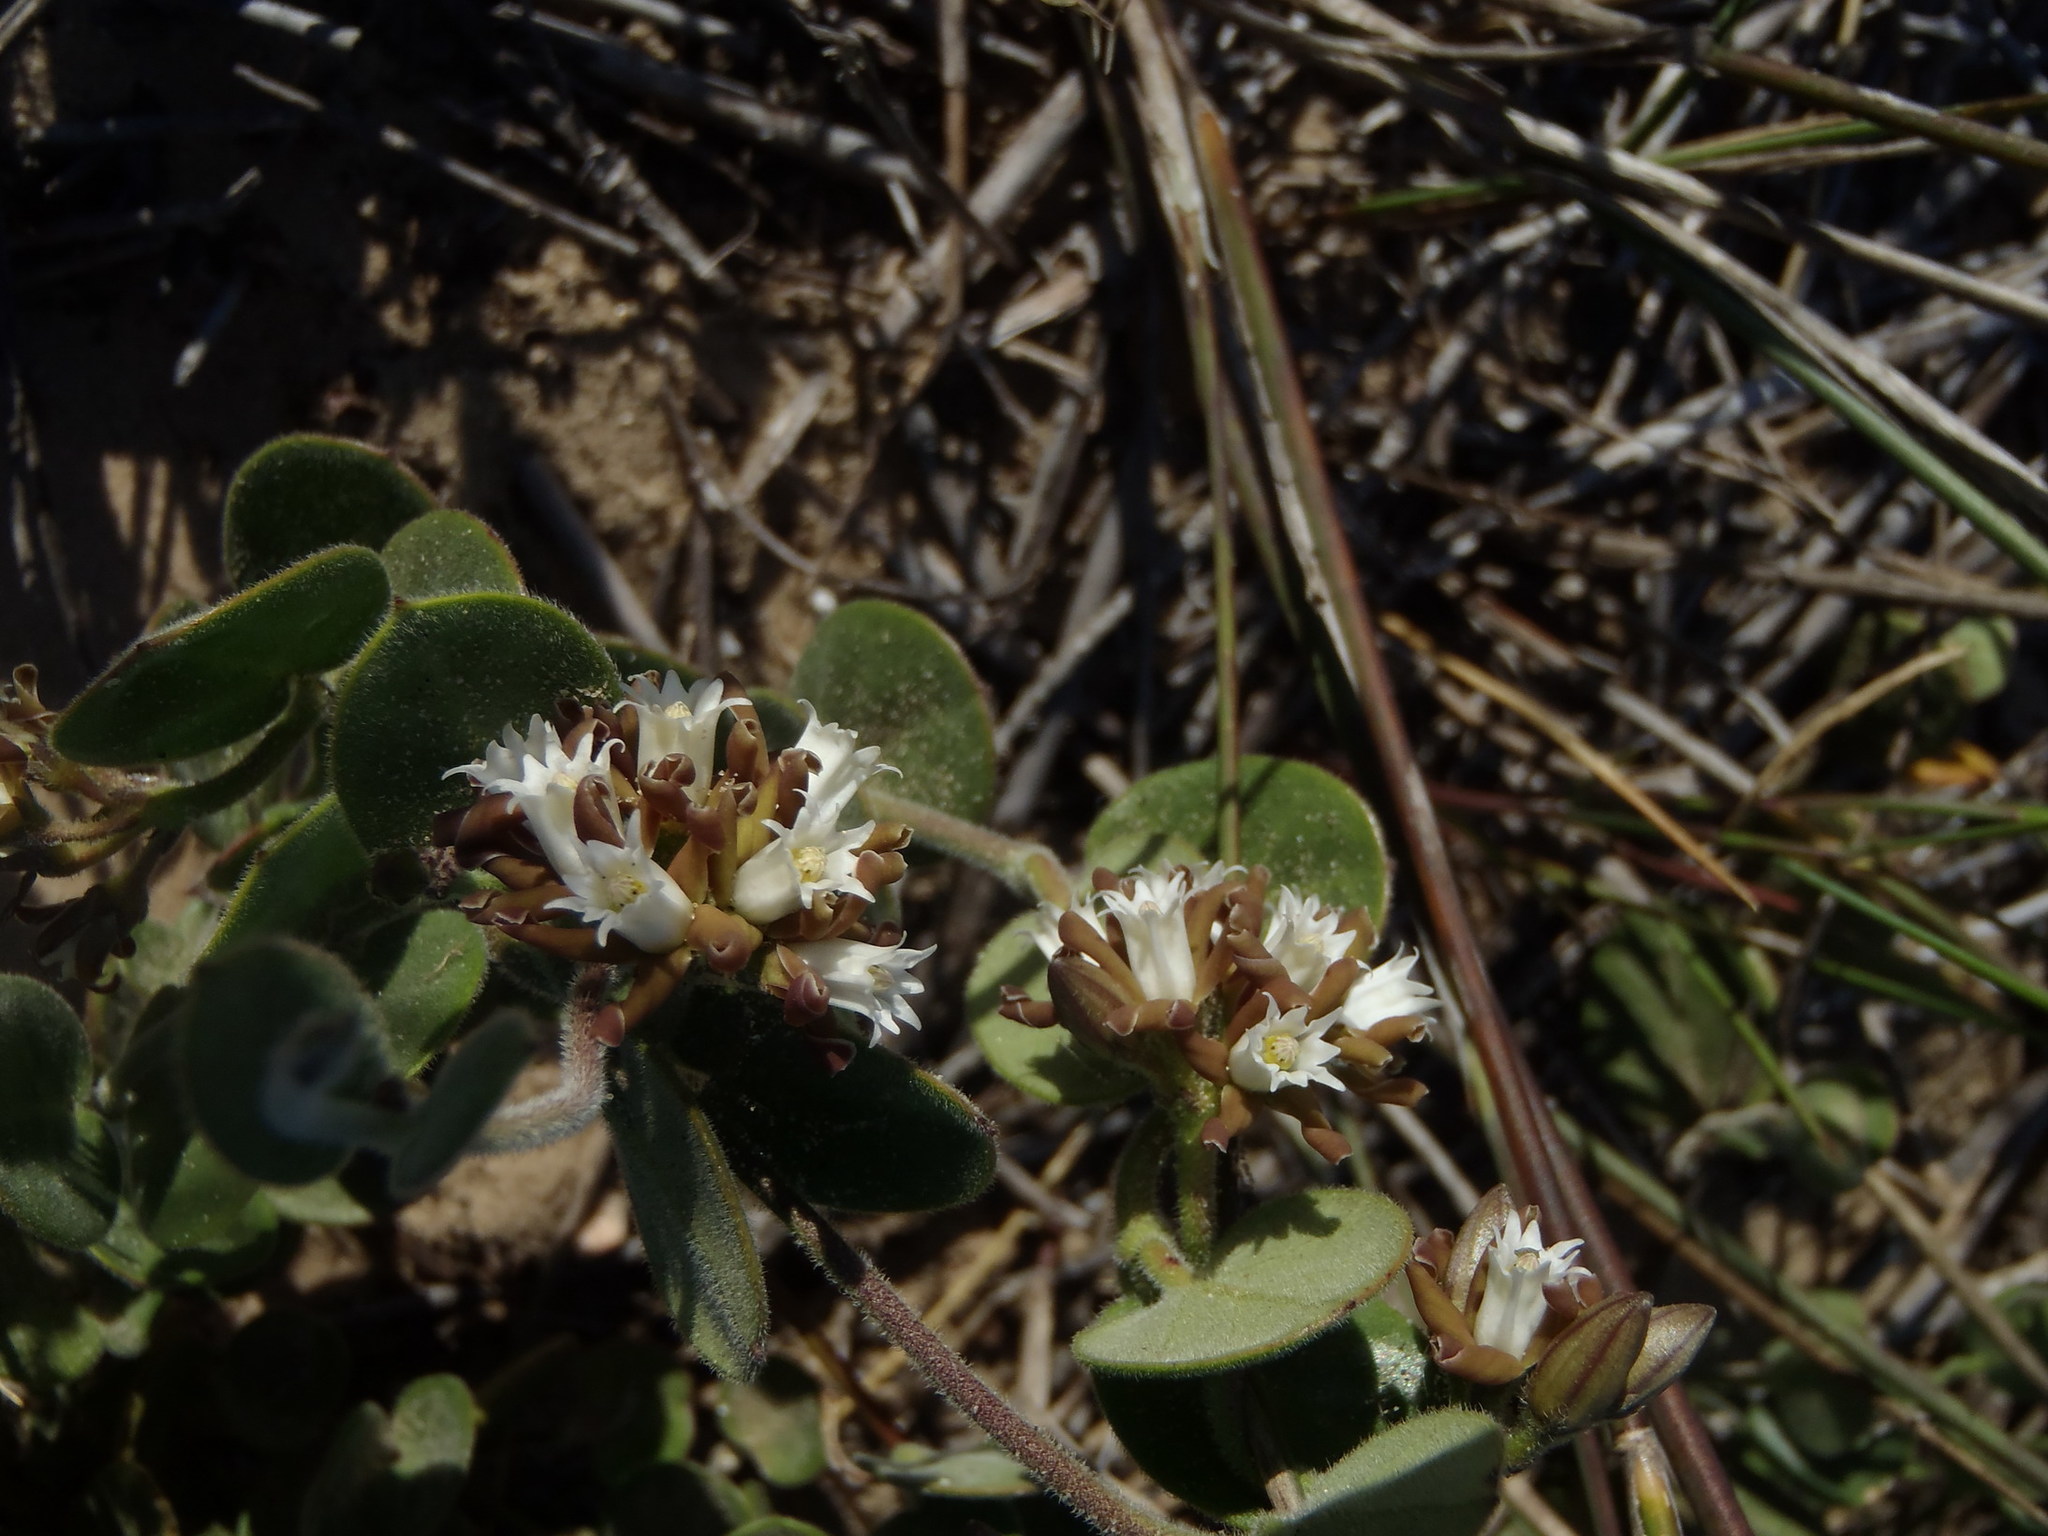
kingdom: Plantae
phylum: Tracheophyta
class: Magnoliopsida
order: Gentianales
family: Apocynaceae
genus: Cynanchum
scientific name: Cynanchum africanum
